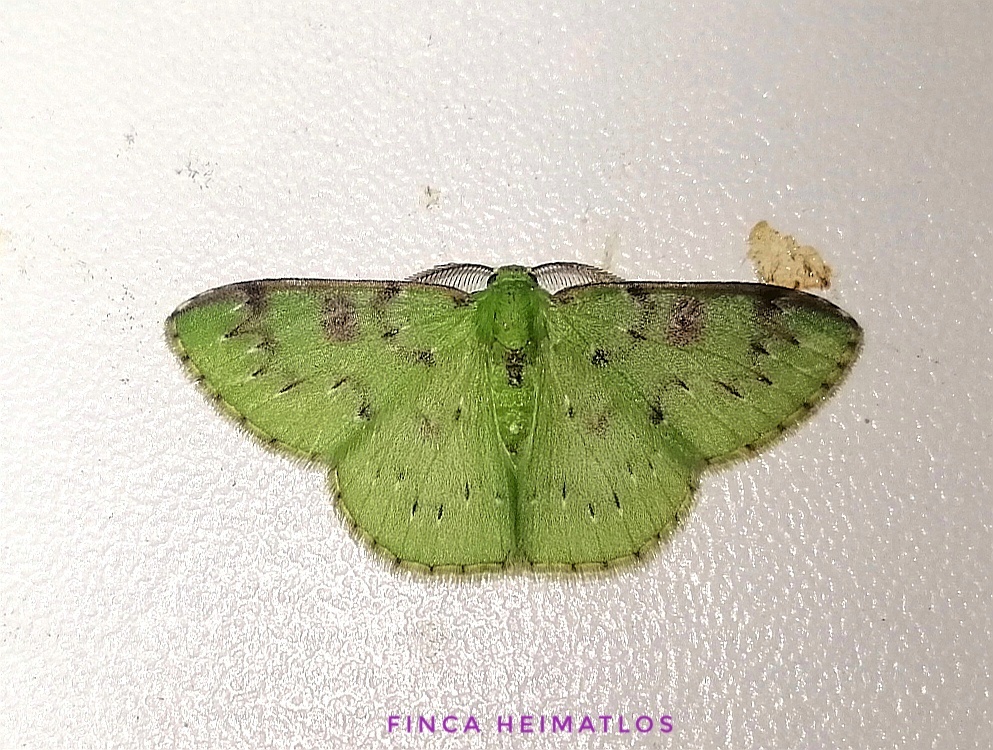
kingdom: Animalia
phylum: Arthropoda
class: Insecta
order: Lepidoptera
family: Geometridae
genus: Nemoria
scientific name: Nemoria parcipuncta
